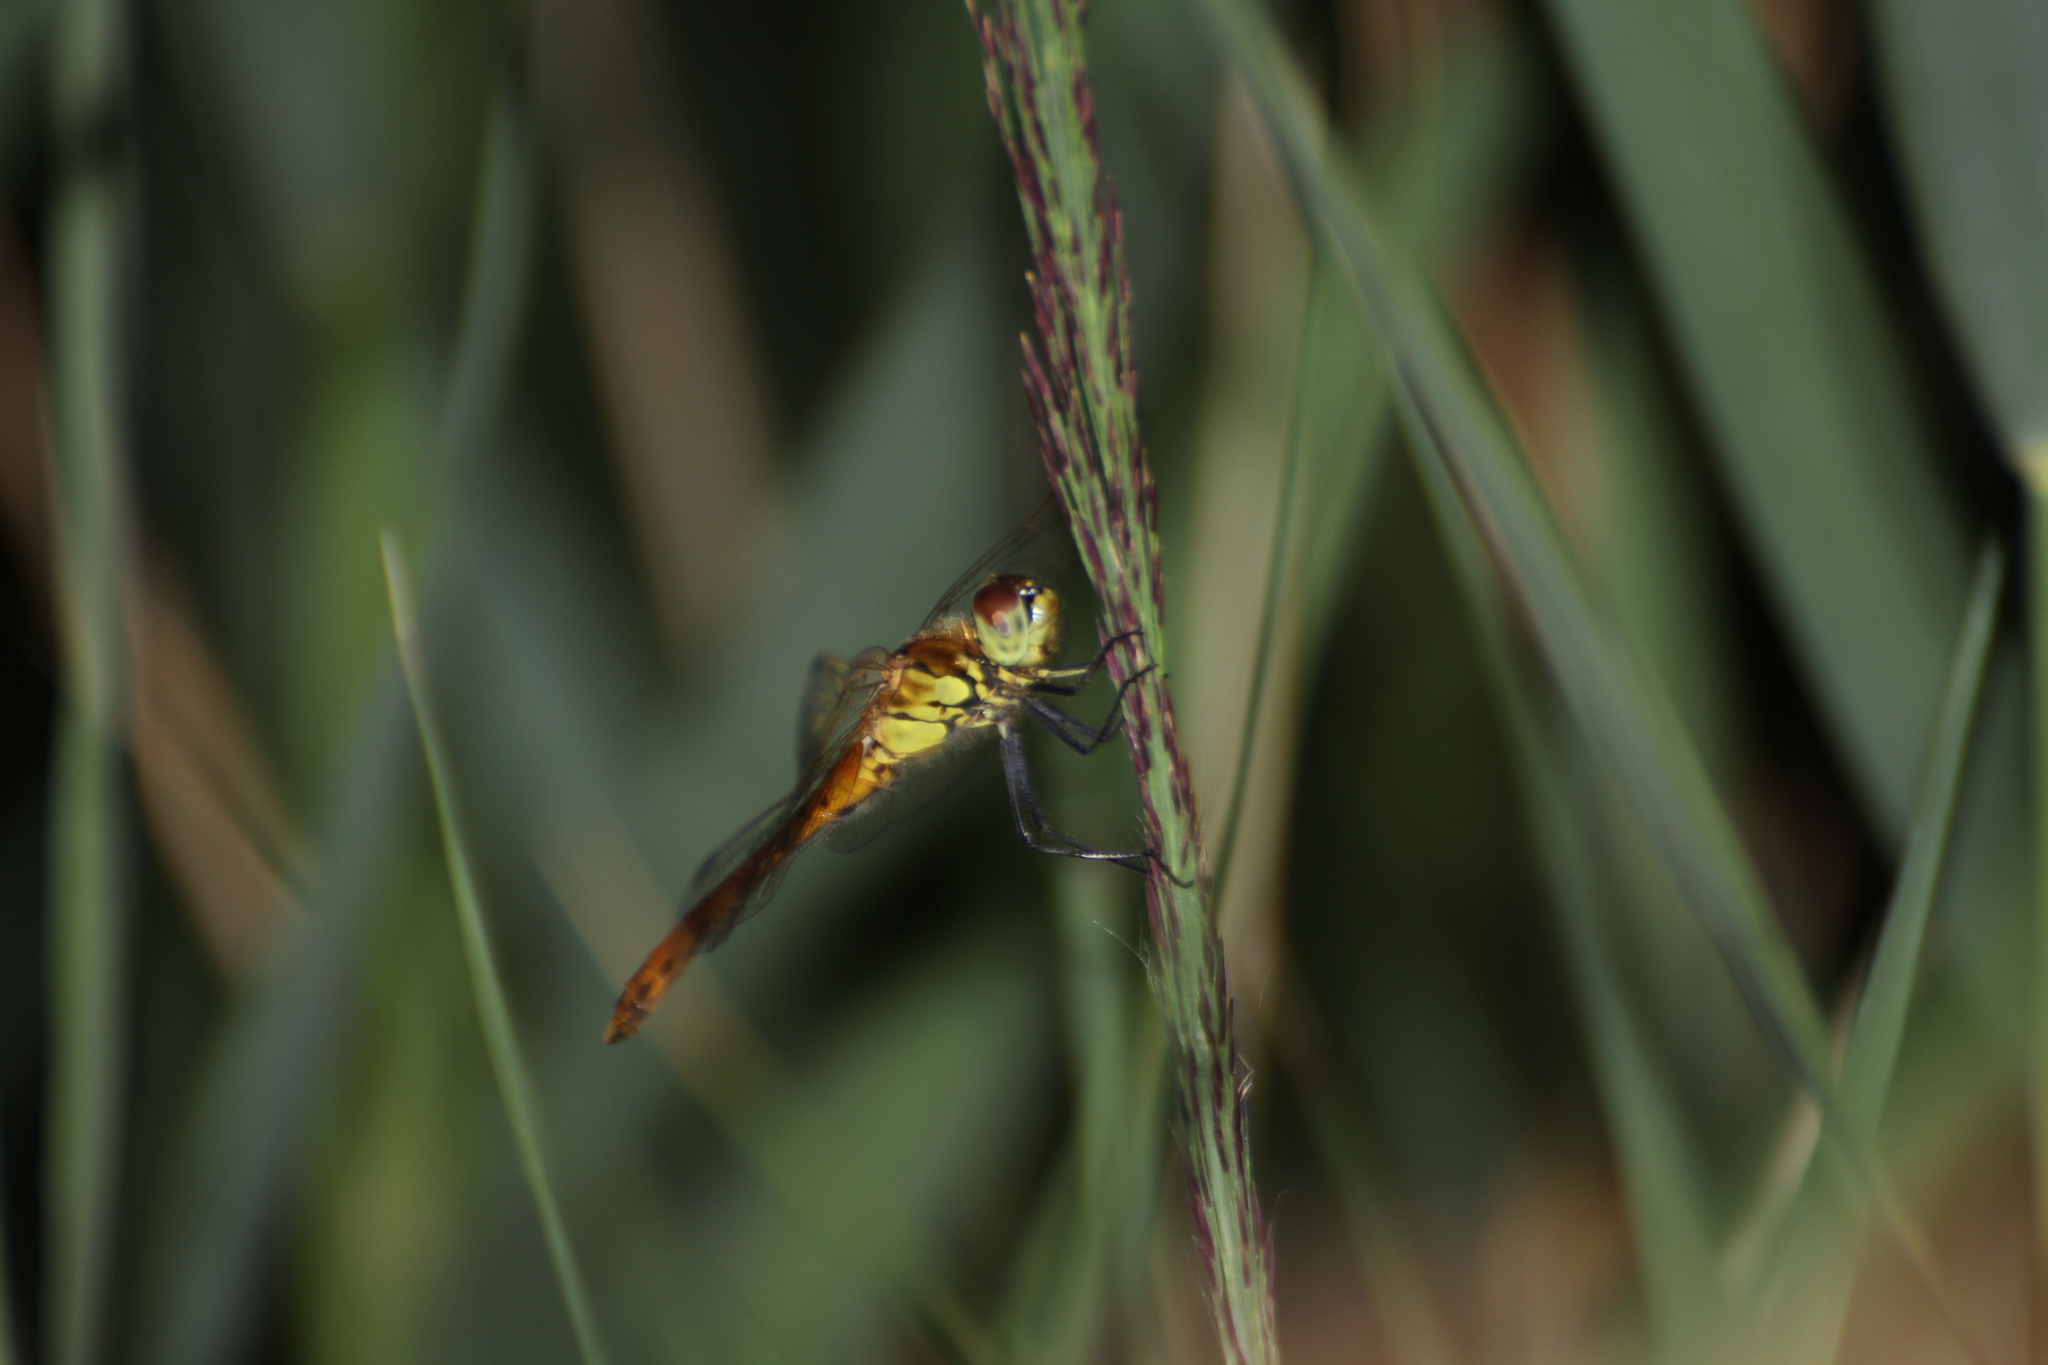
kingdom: Animalia
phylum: Arthropoda
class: Insecta
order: Odonata
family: Libellulidae
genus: Sympetrum
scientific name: Sympetrum depressiusculum
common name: Spotted darter
